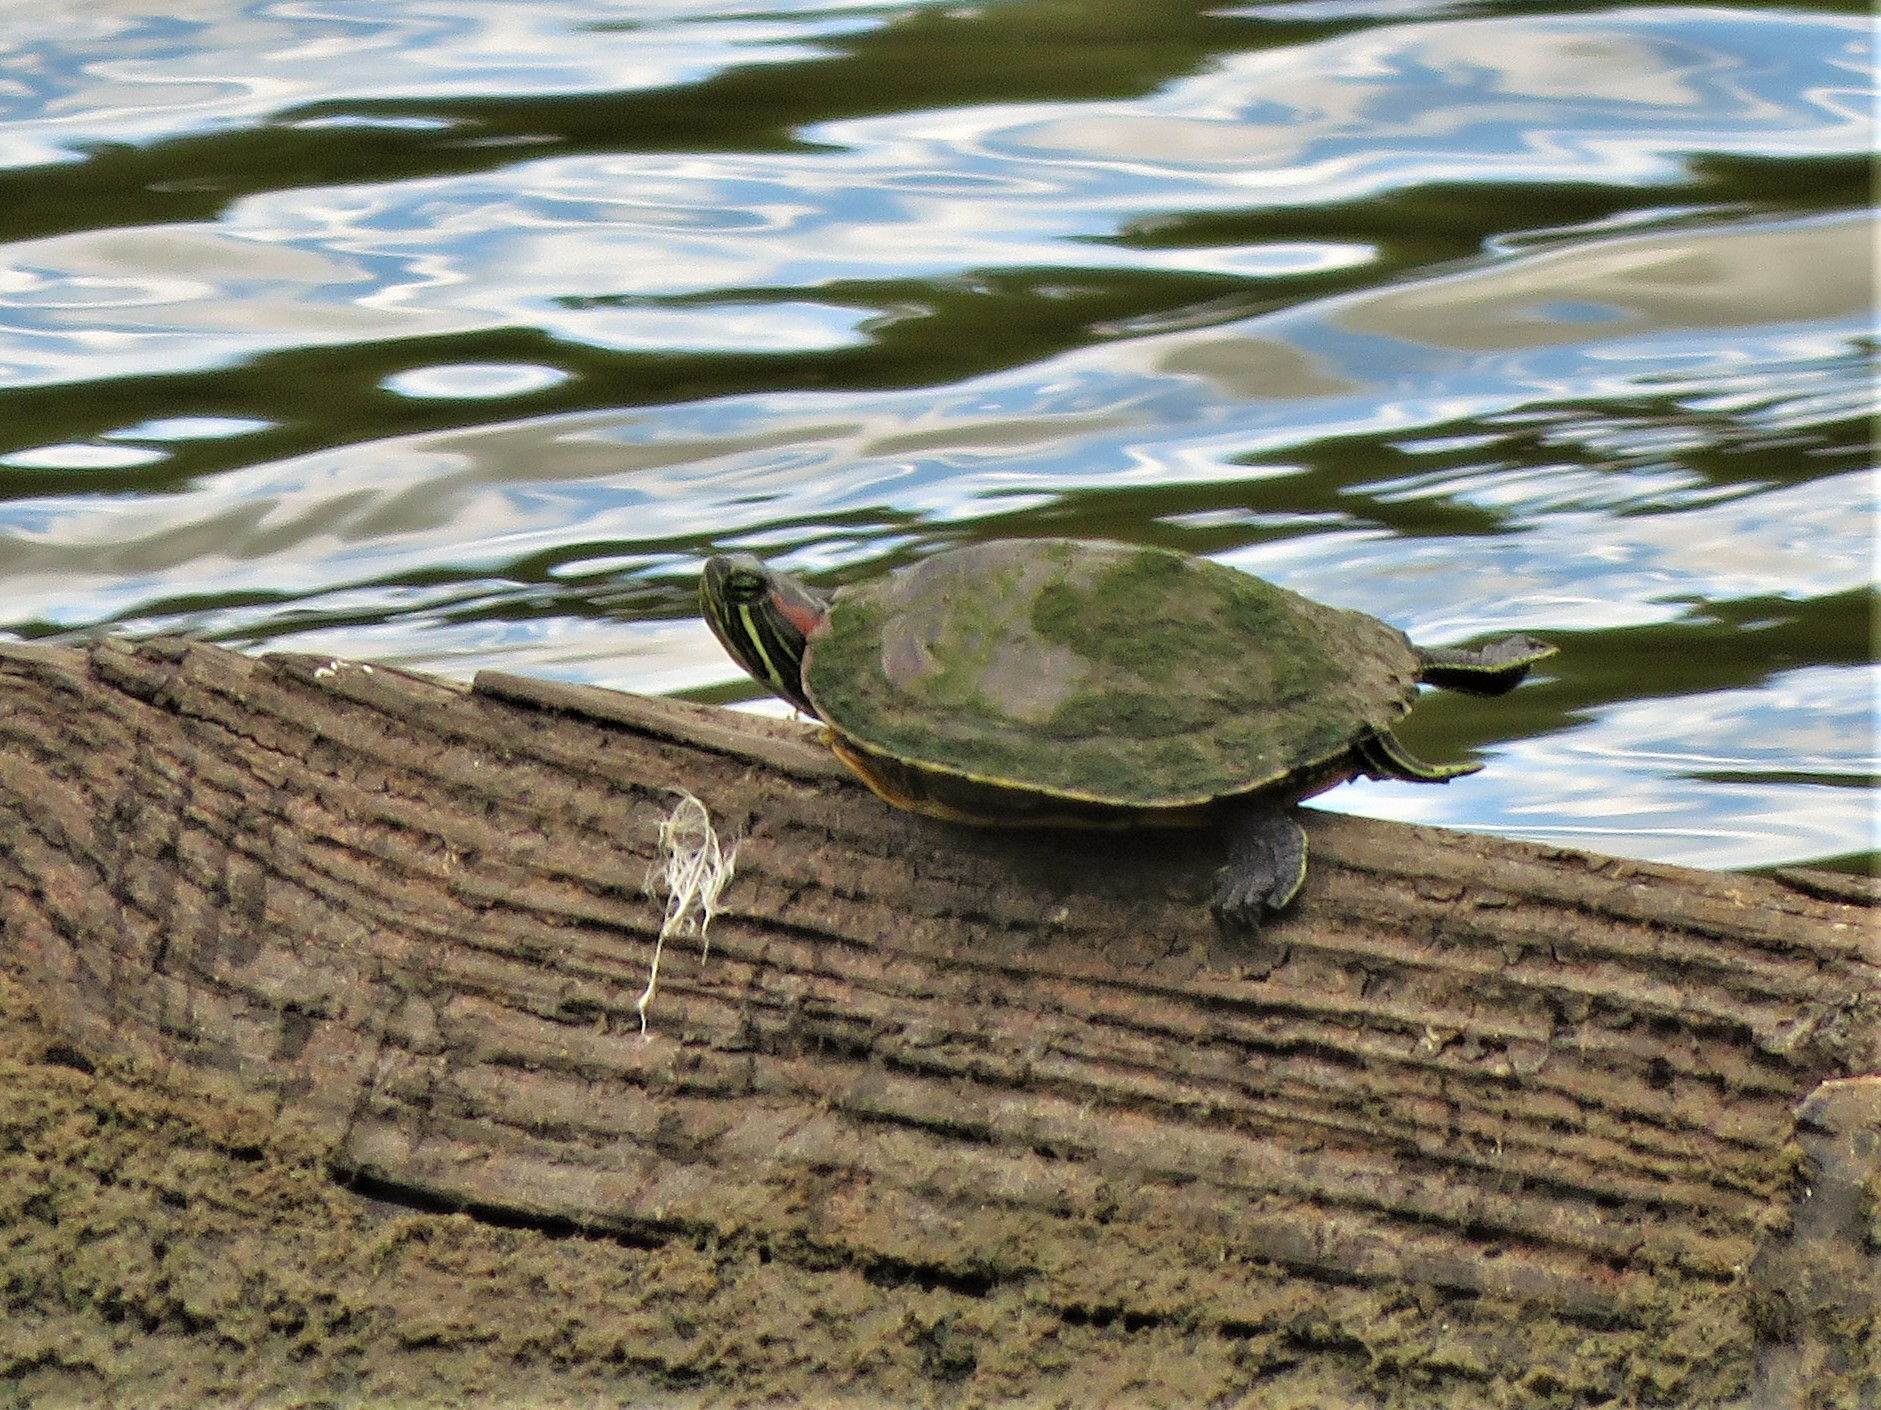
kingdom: Animalia
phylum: Chordata
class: Testudines
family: Emydidae
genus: Trachemys
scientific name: Trachemys scripta
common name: Slider
